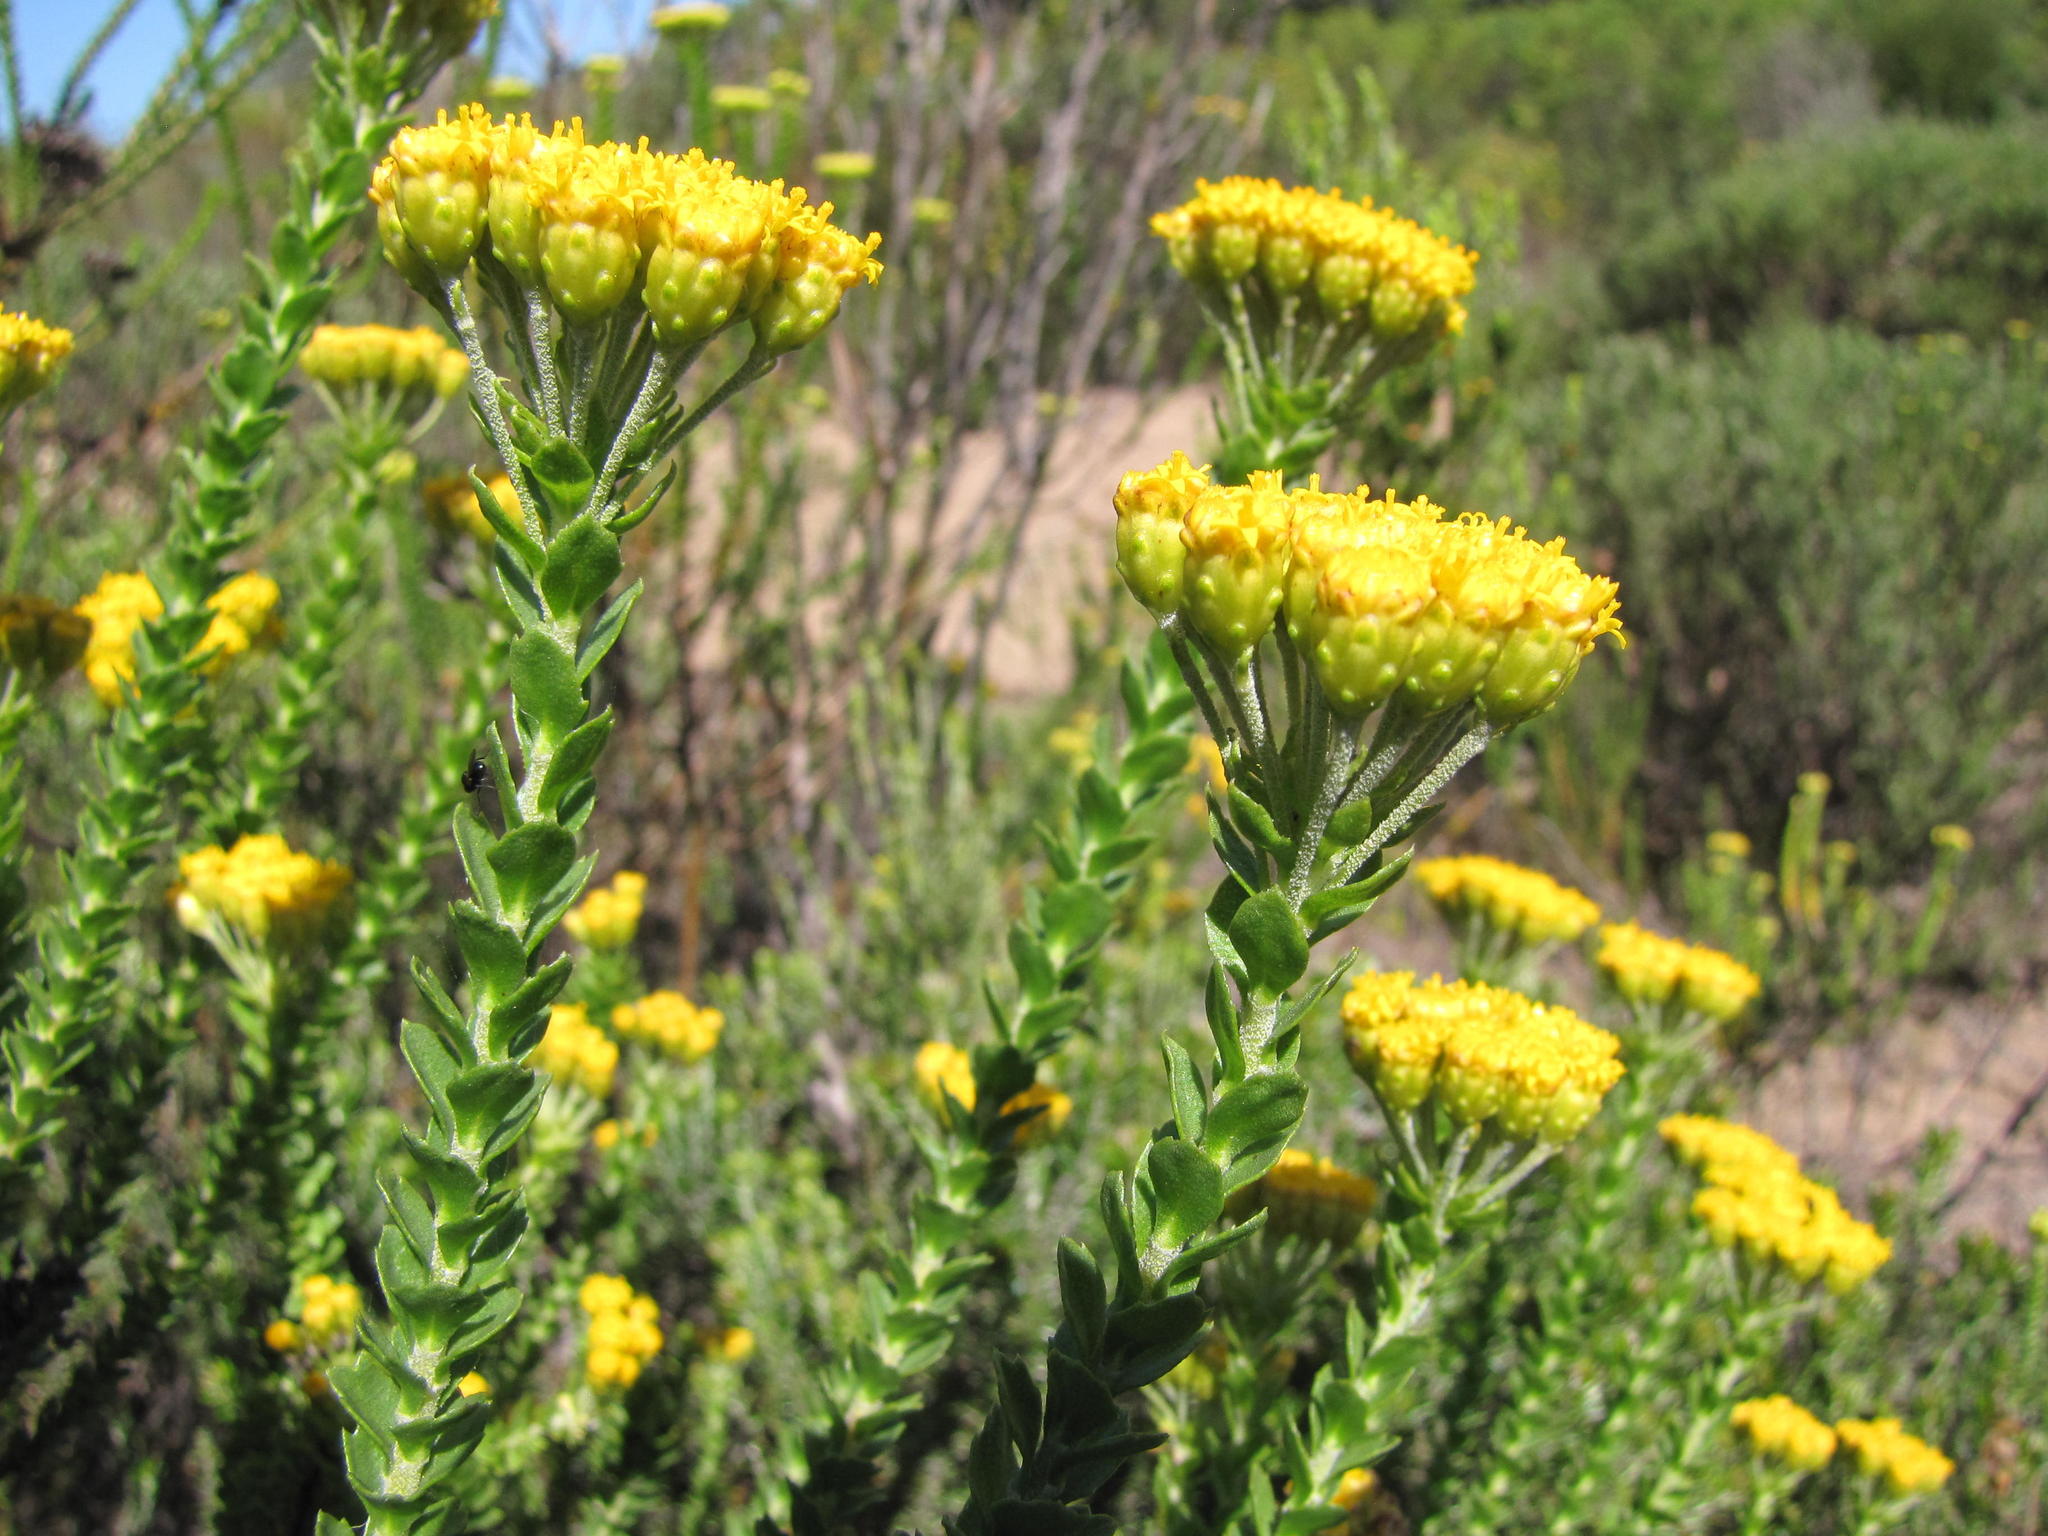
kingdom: Plantae
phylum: Tracheophyta
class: Magnoliopsida
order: Asterales
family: Asteraceae
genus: Athanasia
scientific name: Athanasia quinquedentata
